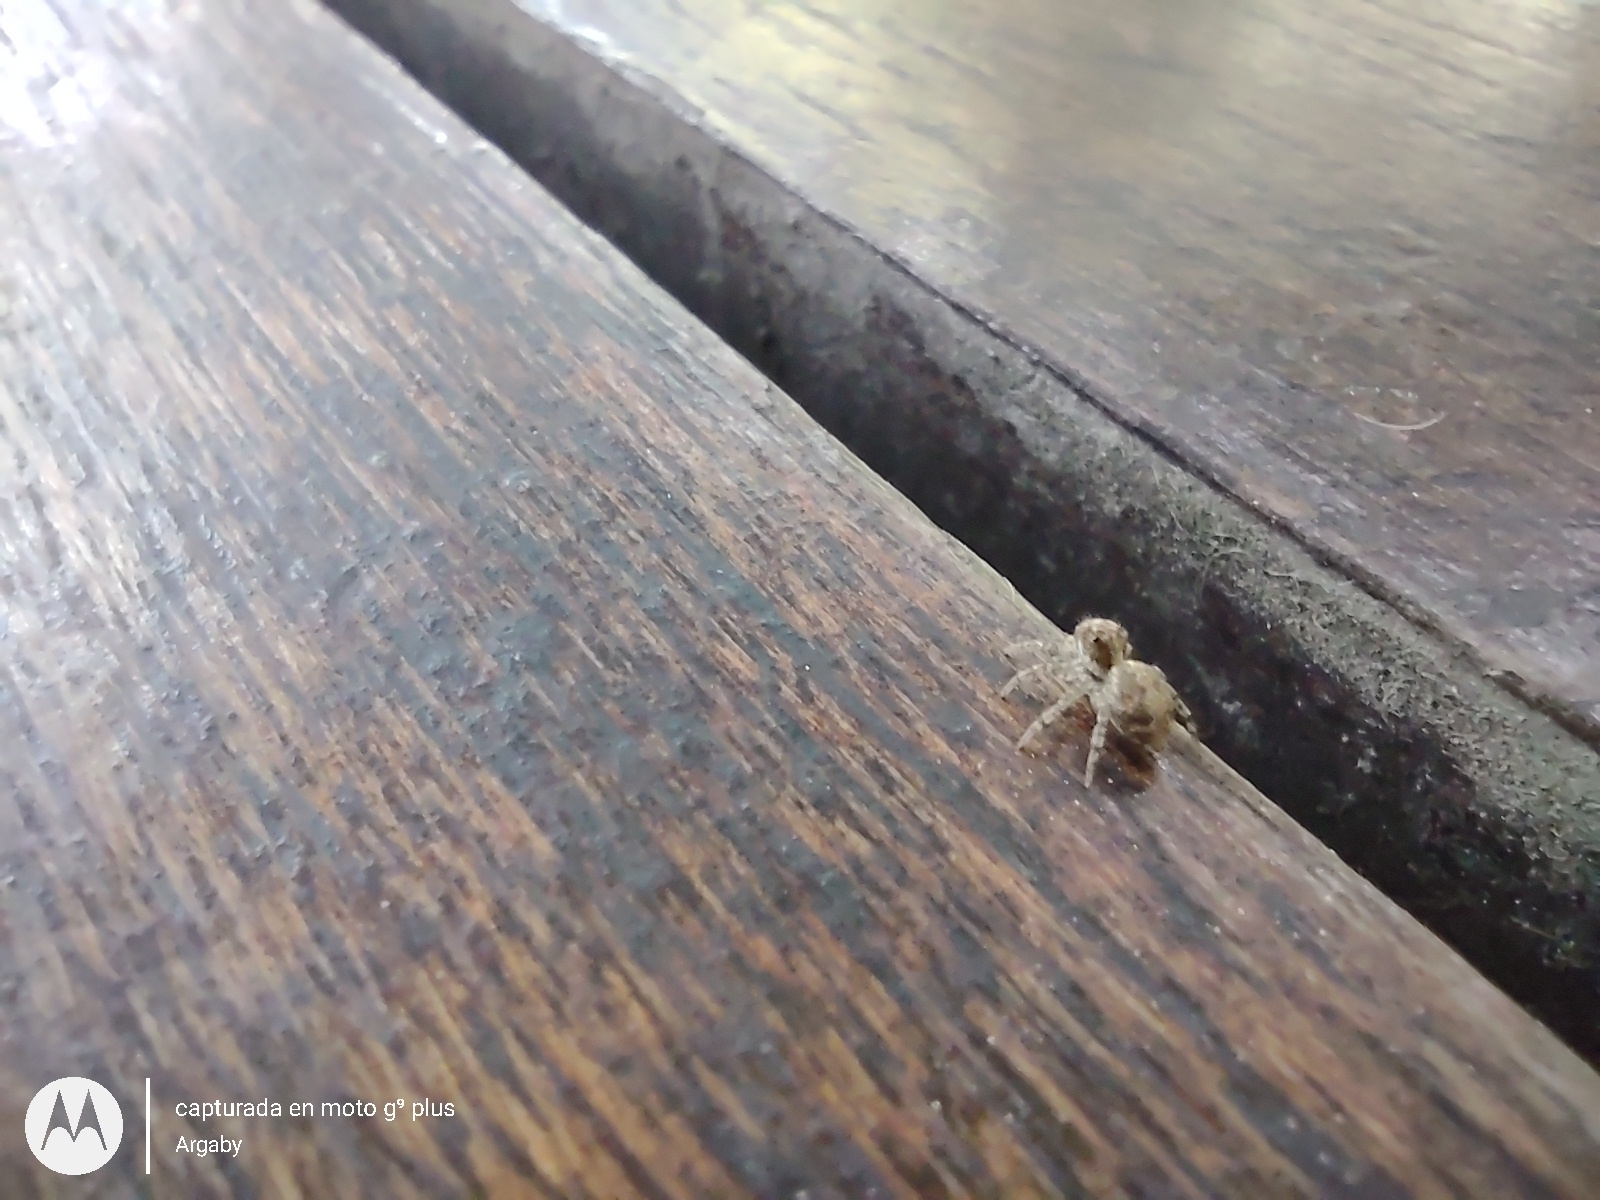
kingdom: Animalia
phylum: Arthropoda
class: Arachnida
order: Araneae
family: Salticidae
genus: Saitis
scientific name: Saitis variegatus
